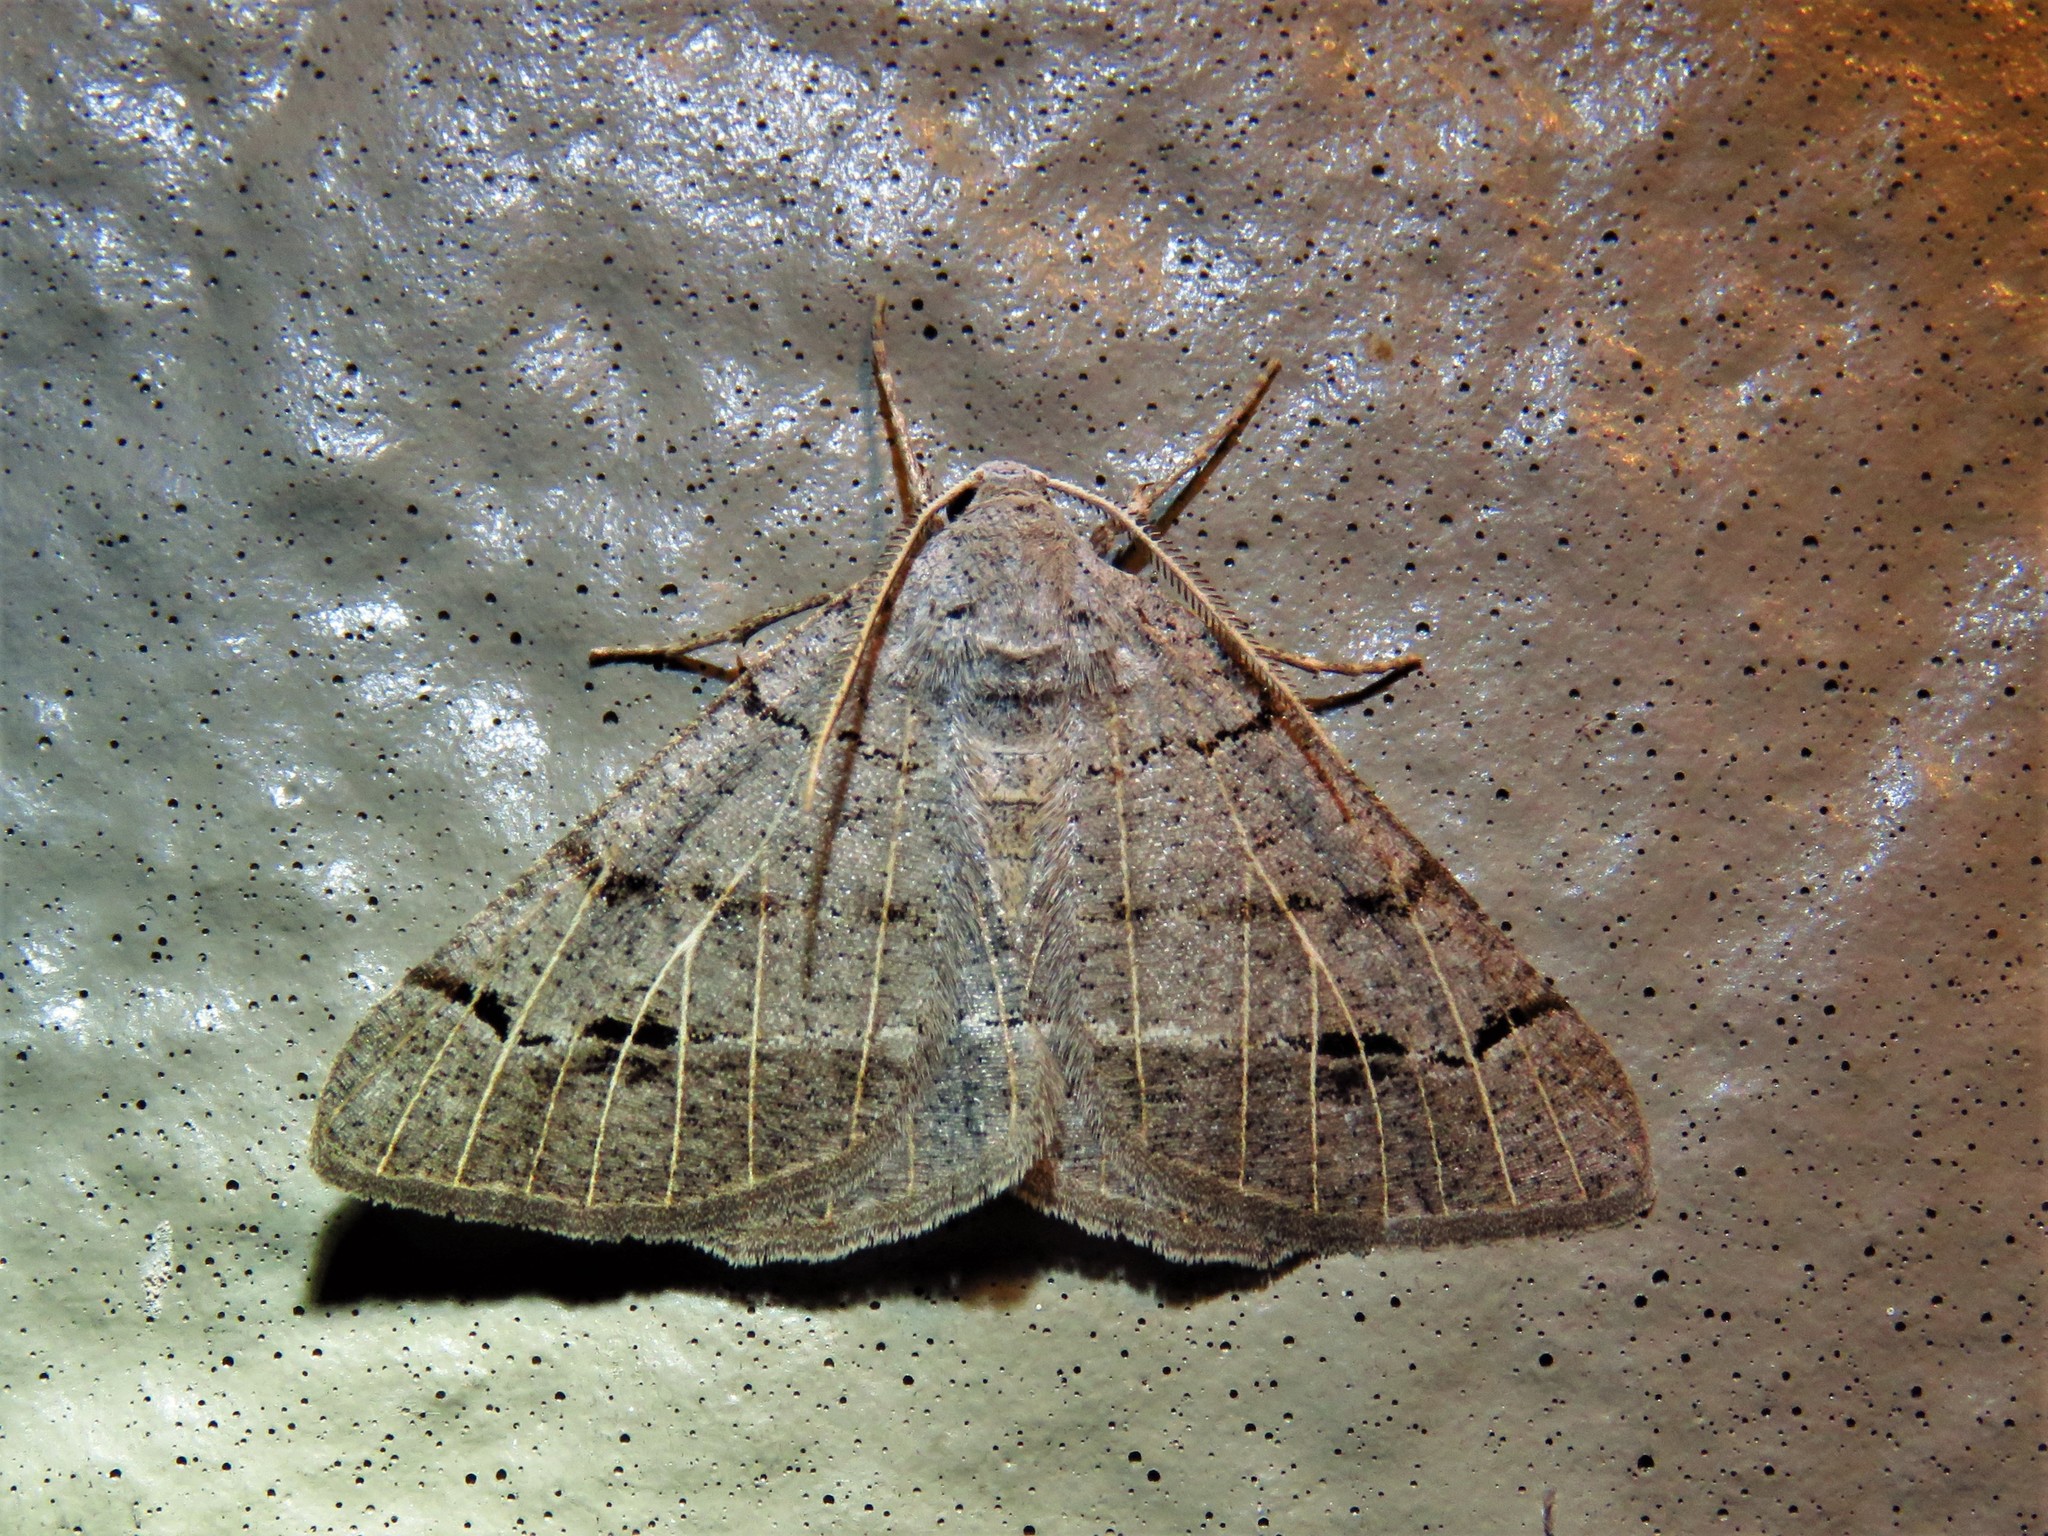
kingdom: Animalia
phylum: Arthropoda
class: Insecta
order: Lepidoptera
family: Geometridae
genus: Isturgia
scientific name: Isturgia dislocaria
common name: Pale-viened enconista
